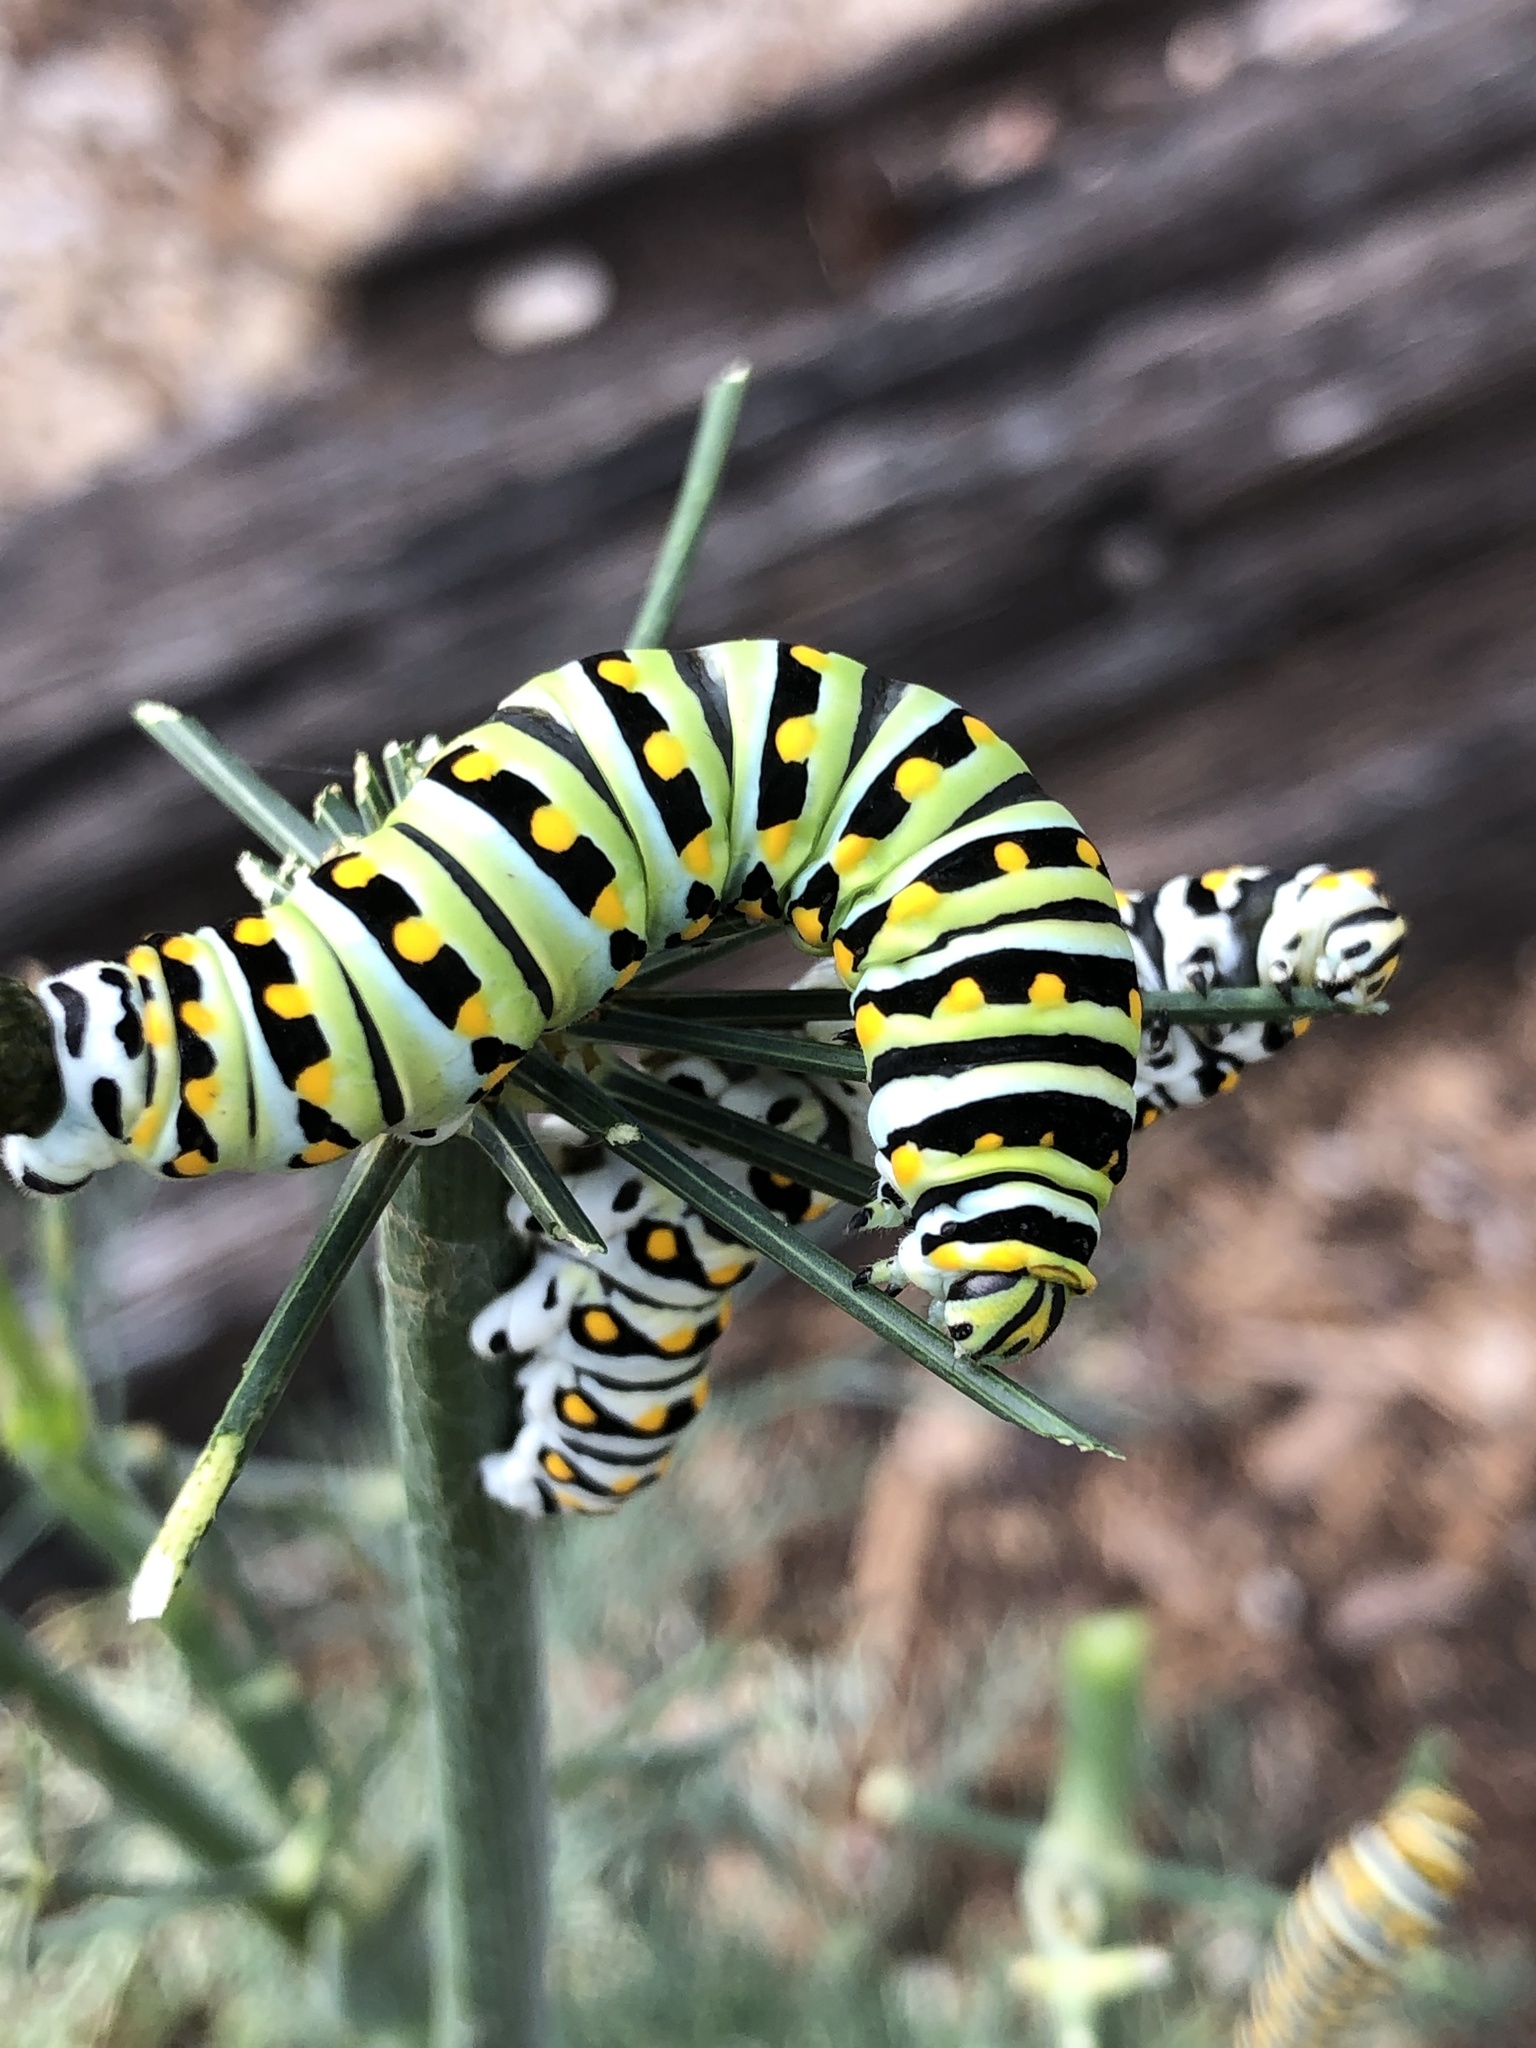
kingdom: Animalia
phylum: Arthropoda
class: Insecta
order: Lepidoptera
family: Papilionidae
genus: Papilio
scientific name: Papilio polyxenes
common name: Black swallowtail
